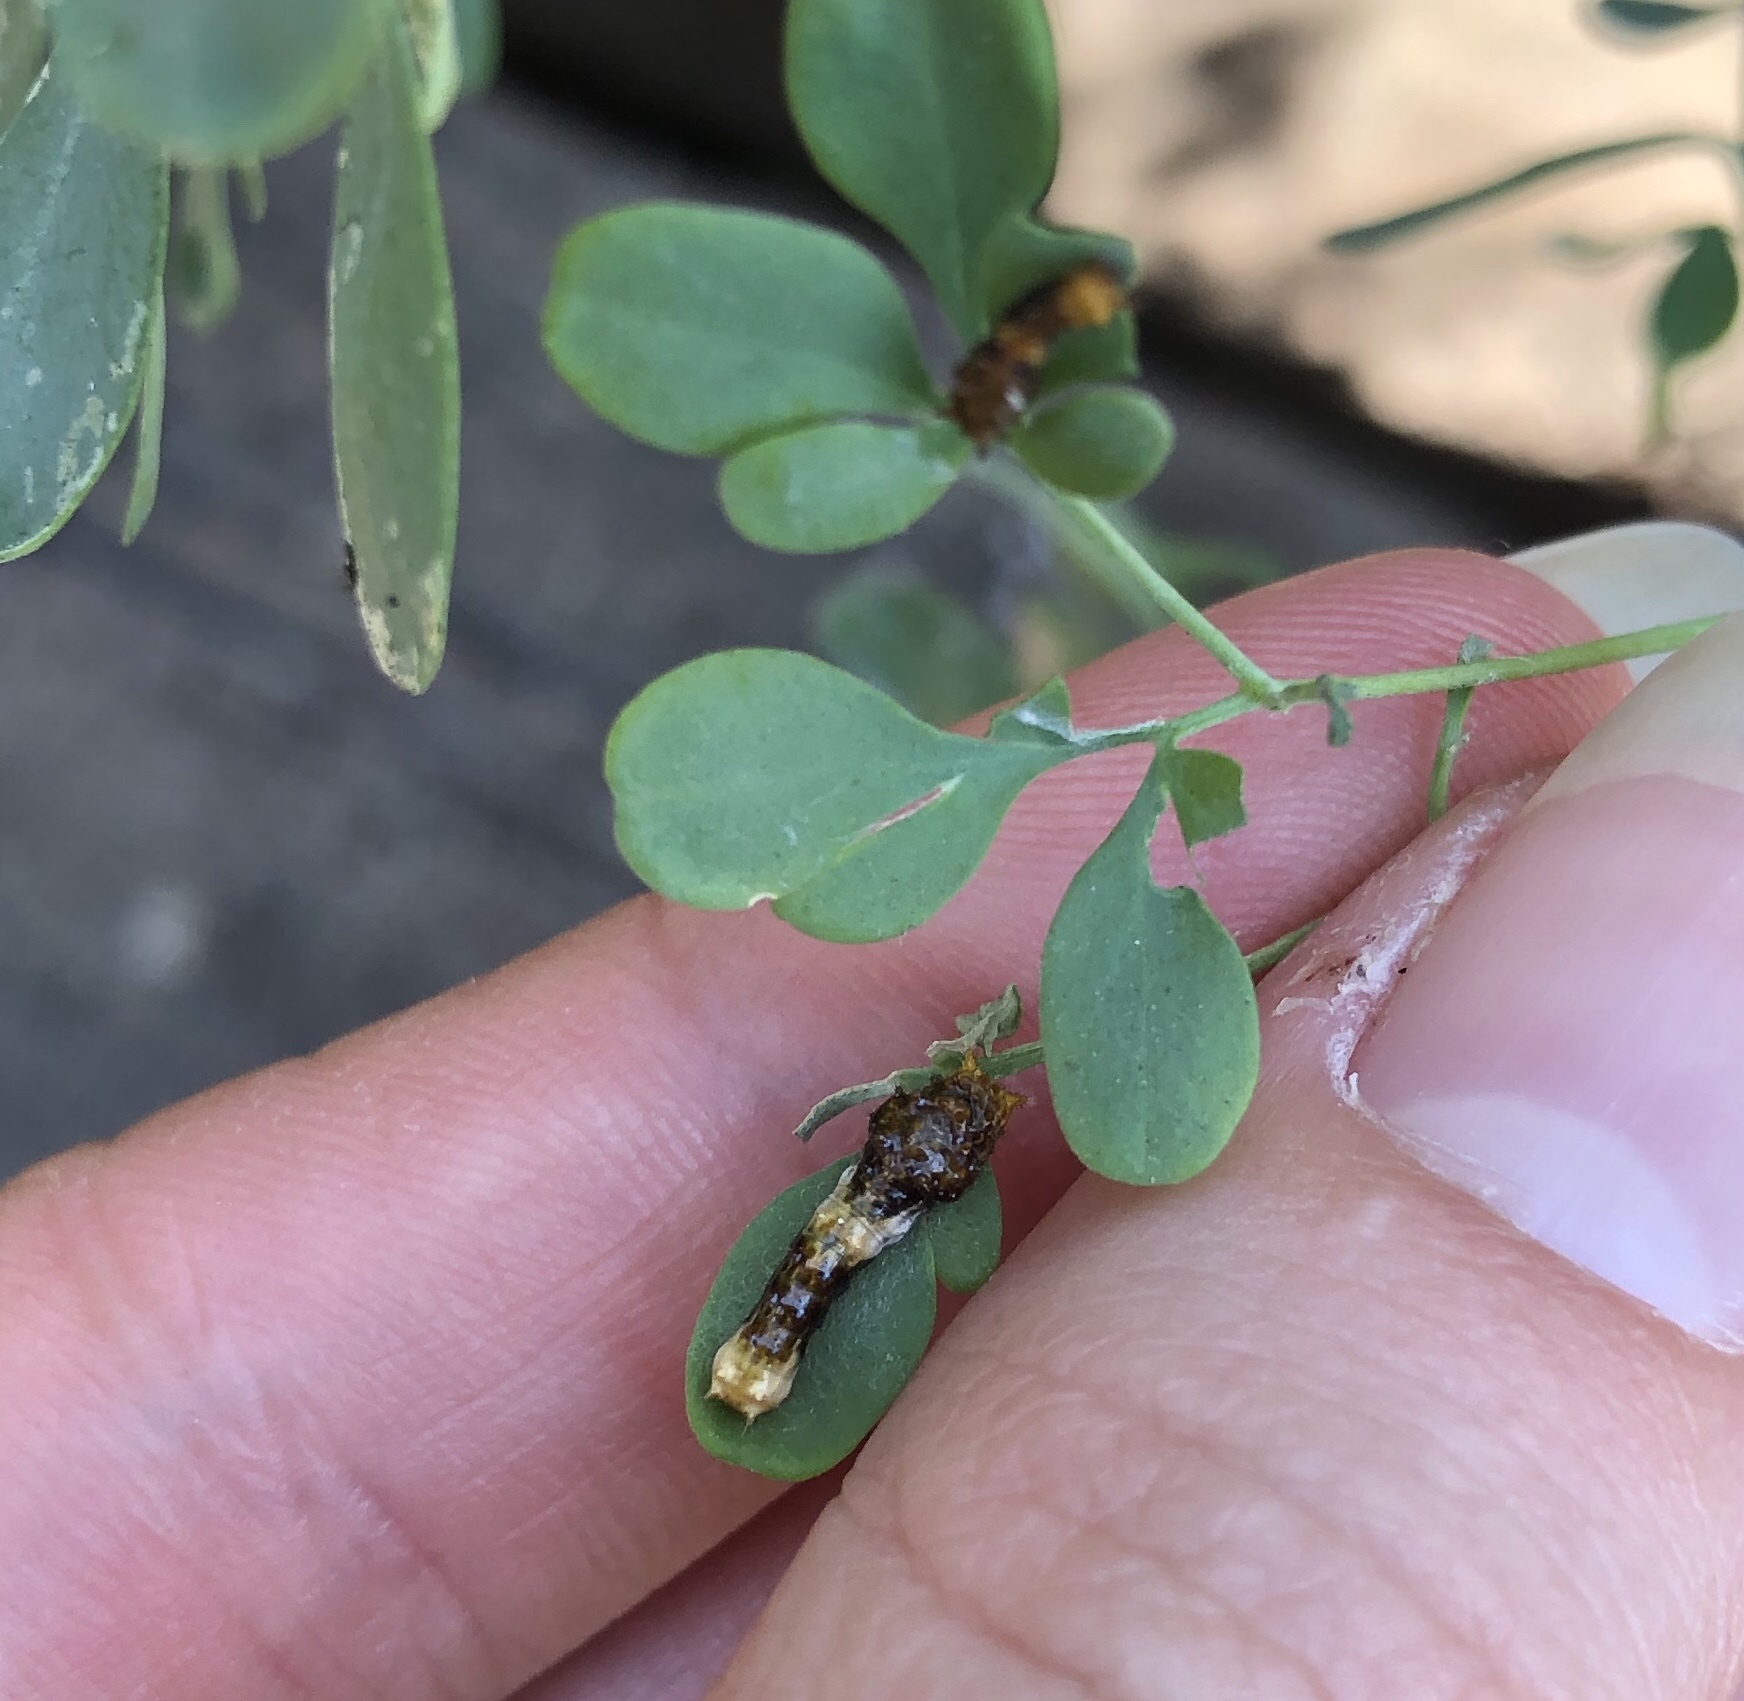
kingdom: Animalia
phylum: Arthropoda
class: Insecta
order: Lepidoptera
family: Papilionidae
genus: Papilio
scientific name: Papilio rumiko
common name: Western giant swallowtail
